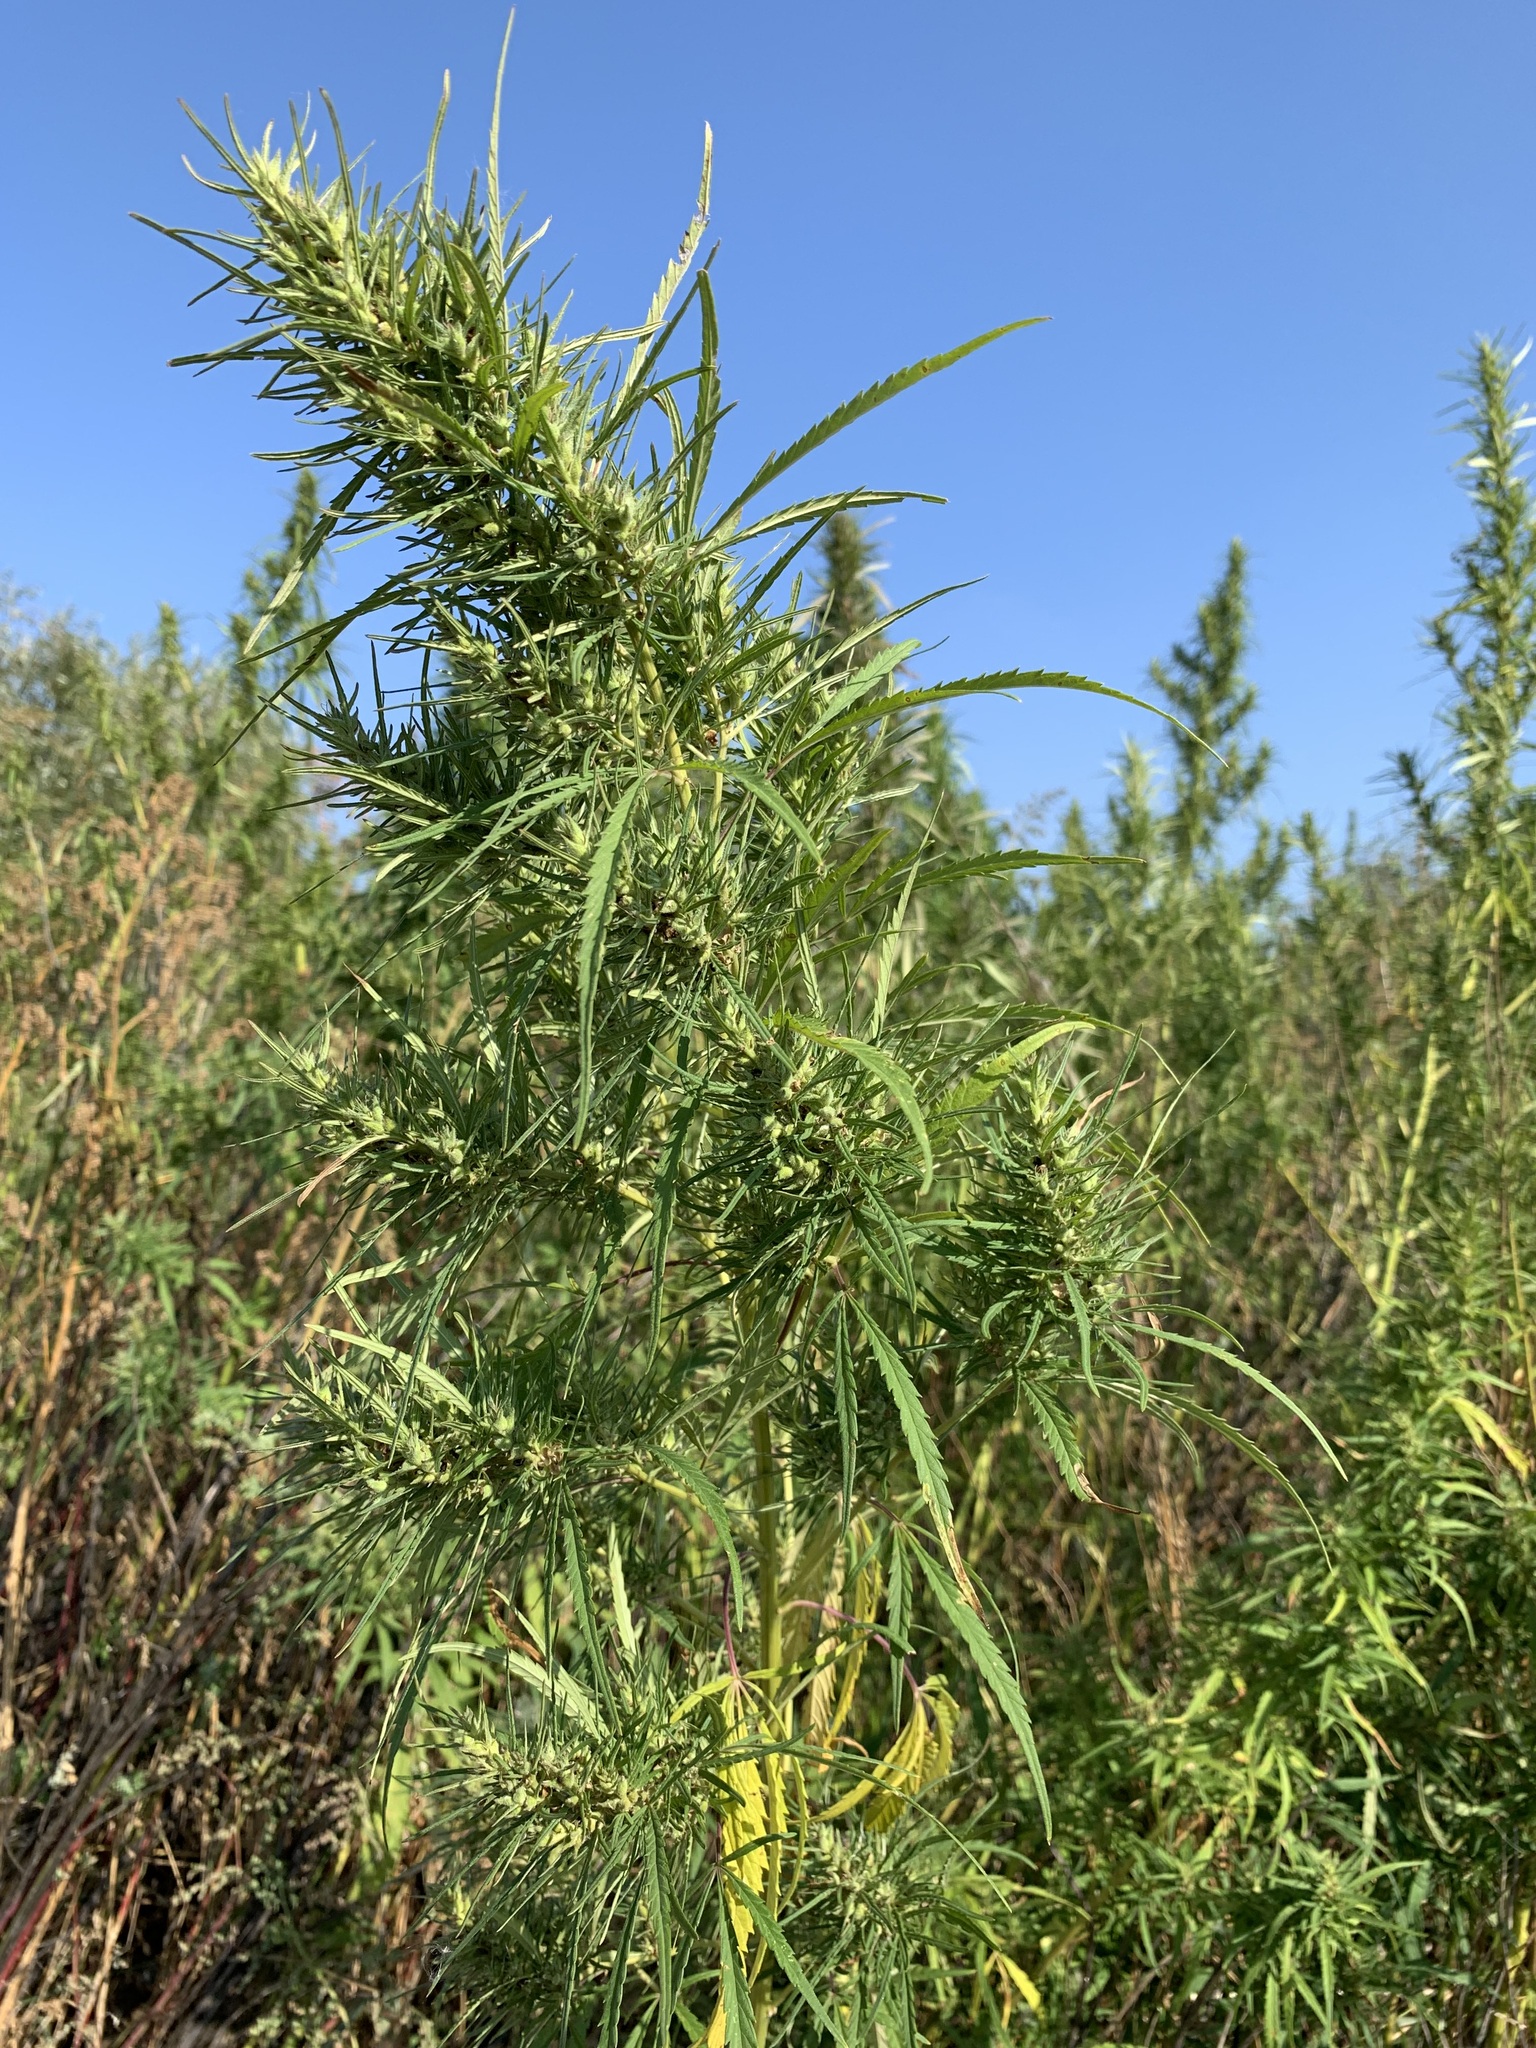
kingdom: Plantae
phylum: Tracheophyta
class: Magnoliopsida
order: Rosales
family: Cannabaceae
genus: Cannabis
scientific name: Cannabis sativa
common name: Hemp
